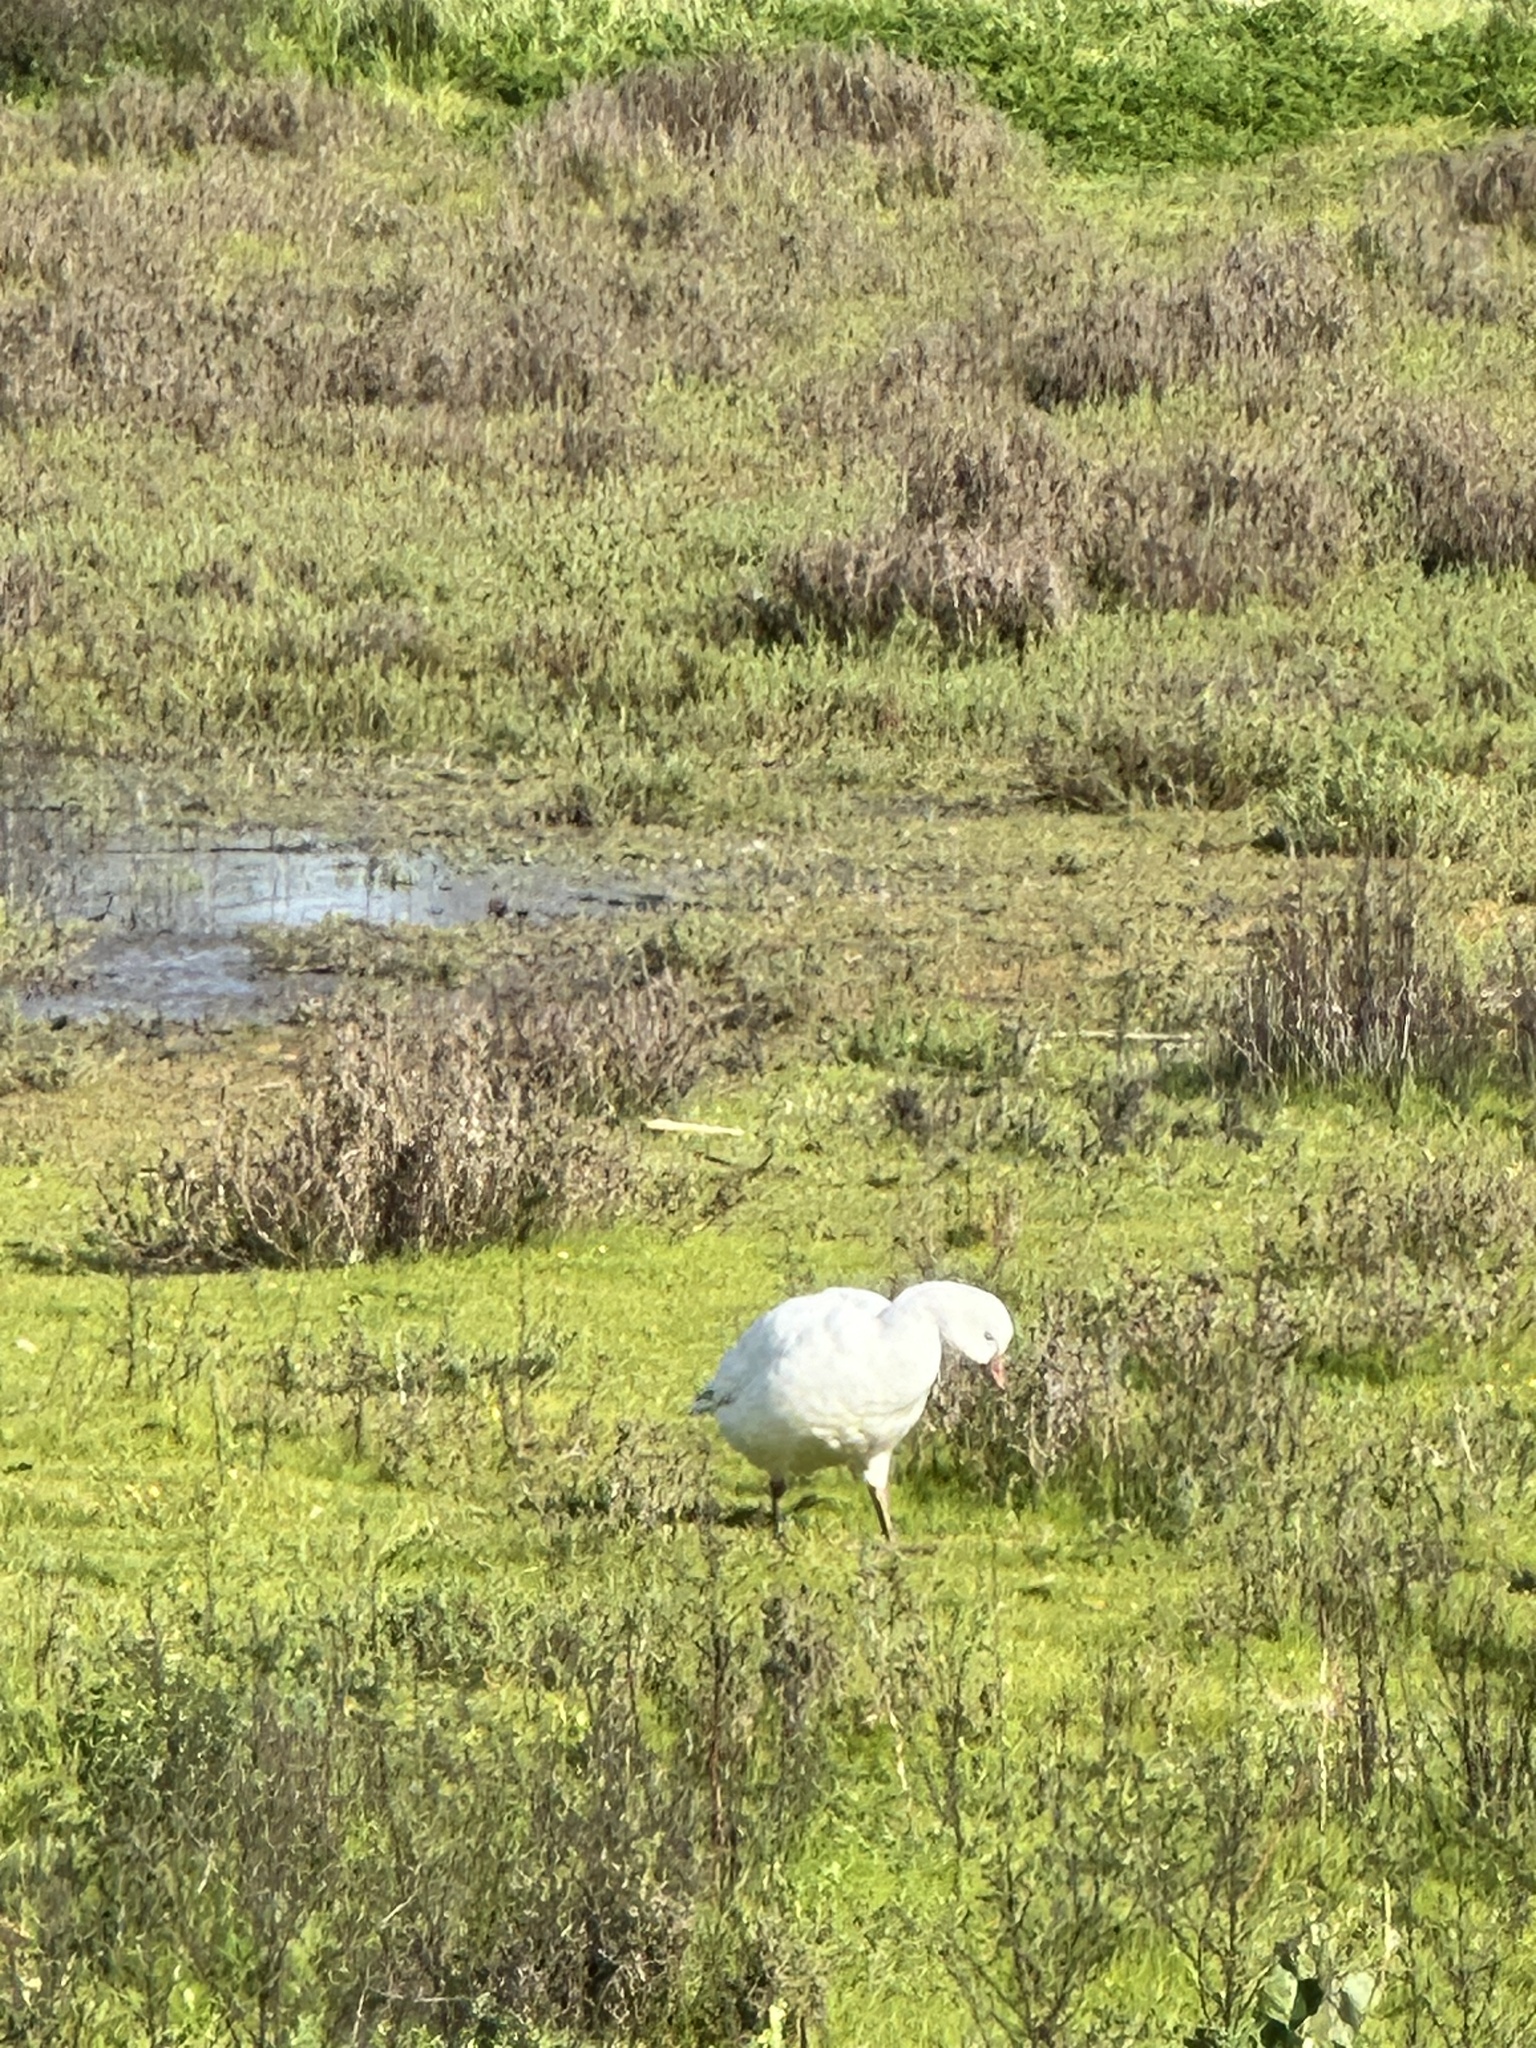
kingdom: Animalia
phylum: Chordata
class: Aves
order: Anseriformes
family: Anatidae
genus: Anser
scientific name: Anser rossii
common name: Ross's goose
